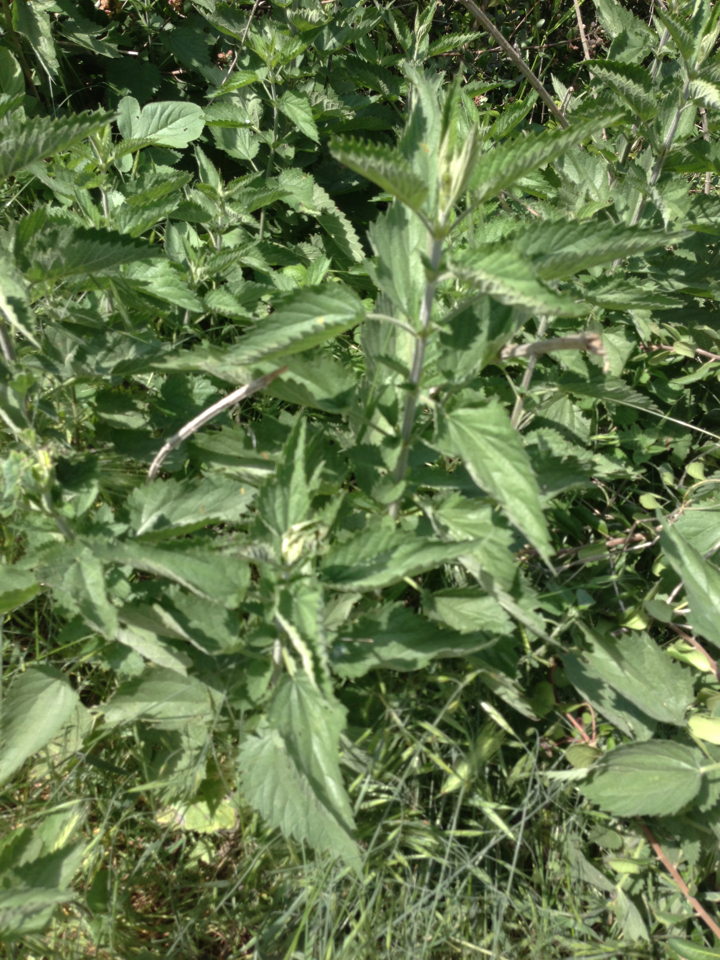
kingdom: Plantae
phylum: Tracheophyta
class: Magnoliopsida
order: Rosales
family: Urticaceae
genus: Urtica
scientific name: Urtica dioica
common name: Common nettle
